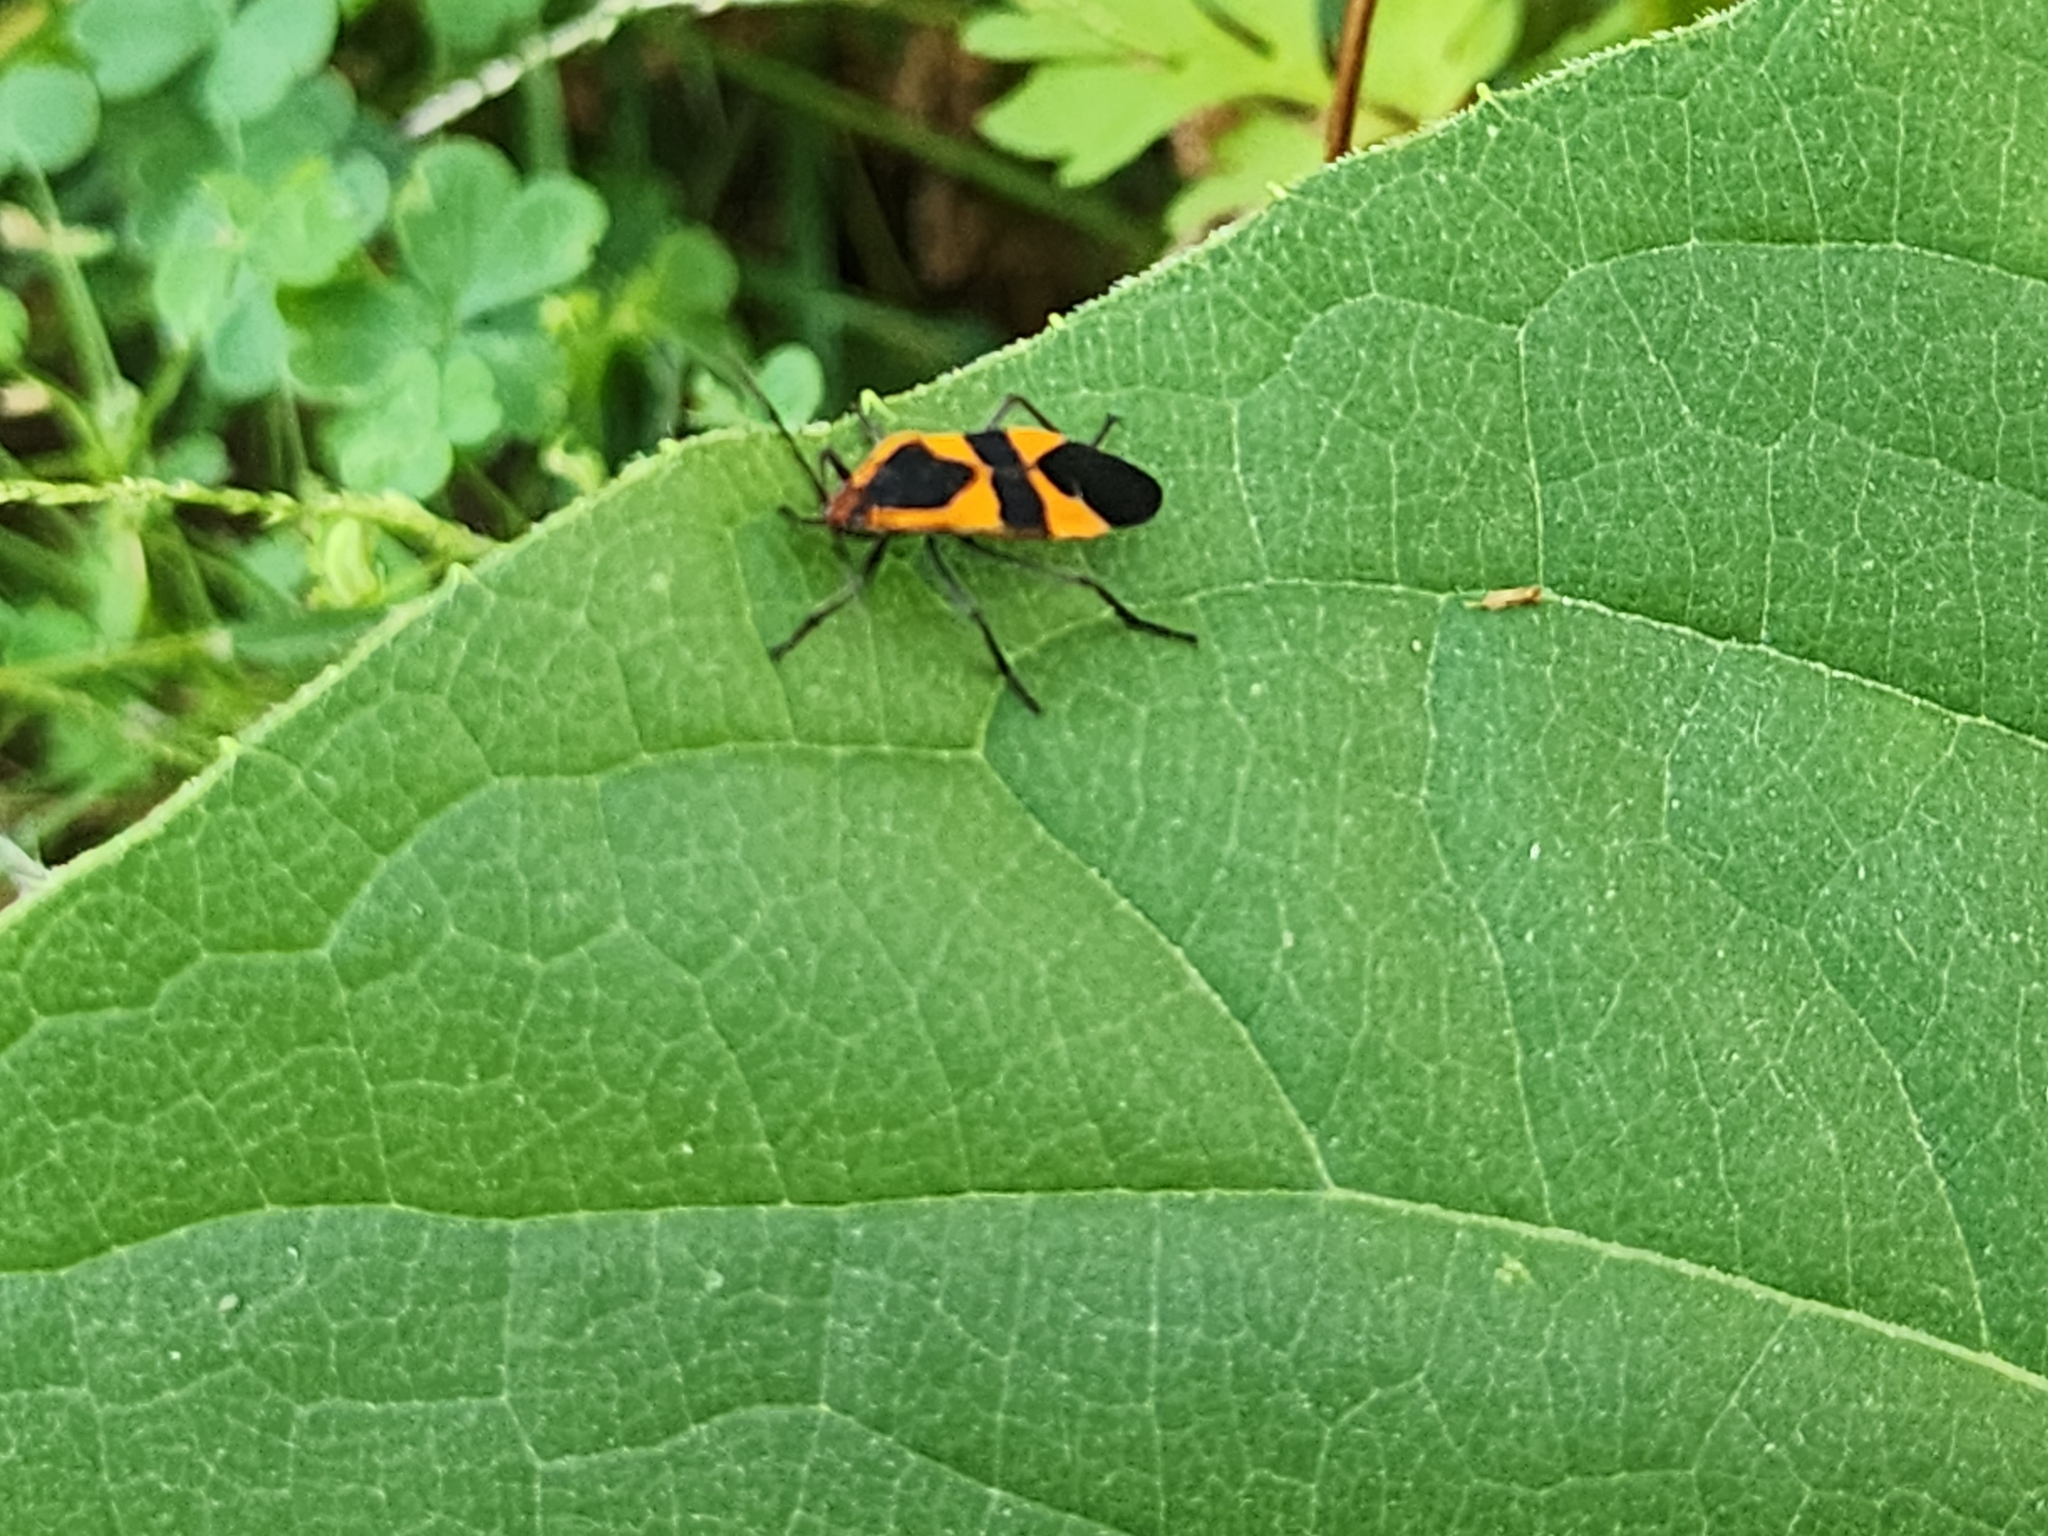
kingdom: Animalia
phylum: Arthropoda
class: Insecta
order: Hemiptera
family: Lygaeidae
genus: Oncopeltus
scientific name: Oncopeltus fasciatus
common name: Large milkweed bug
